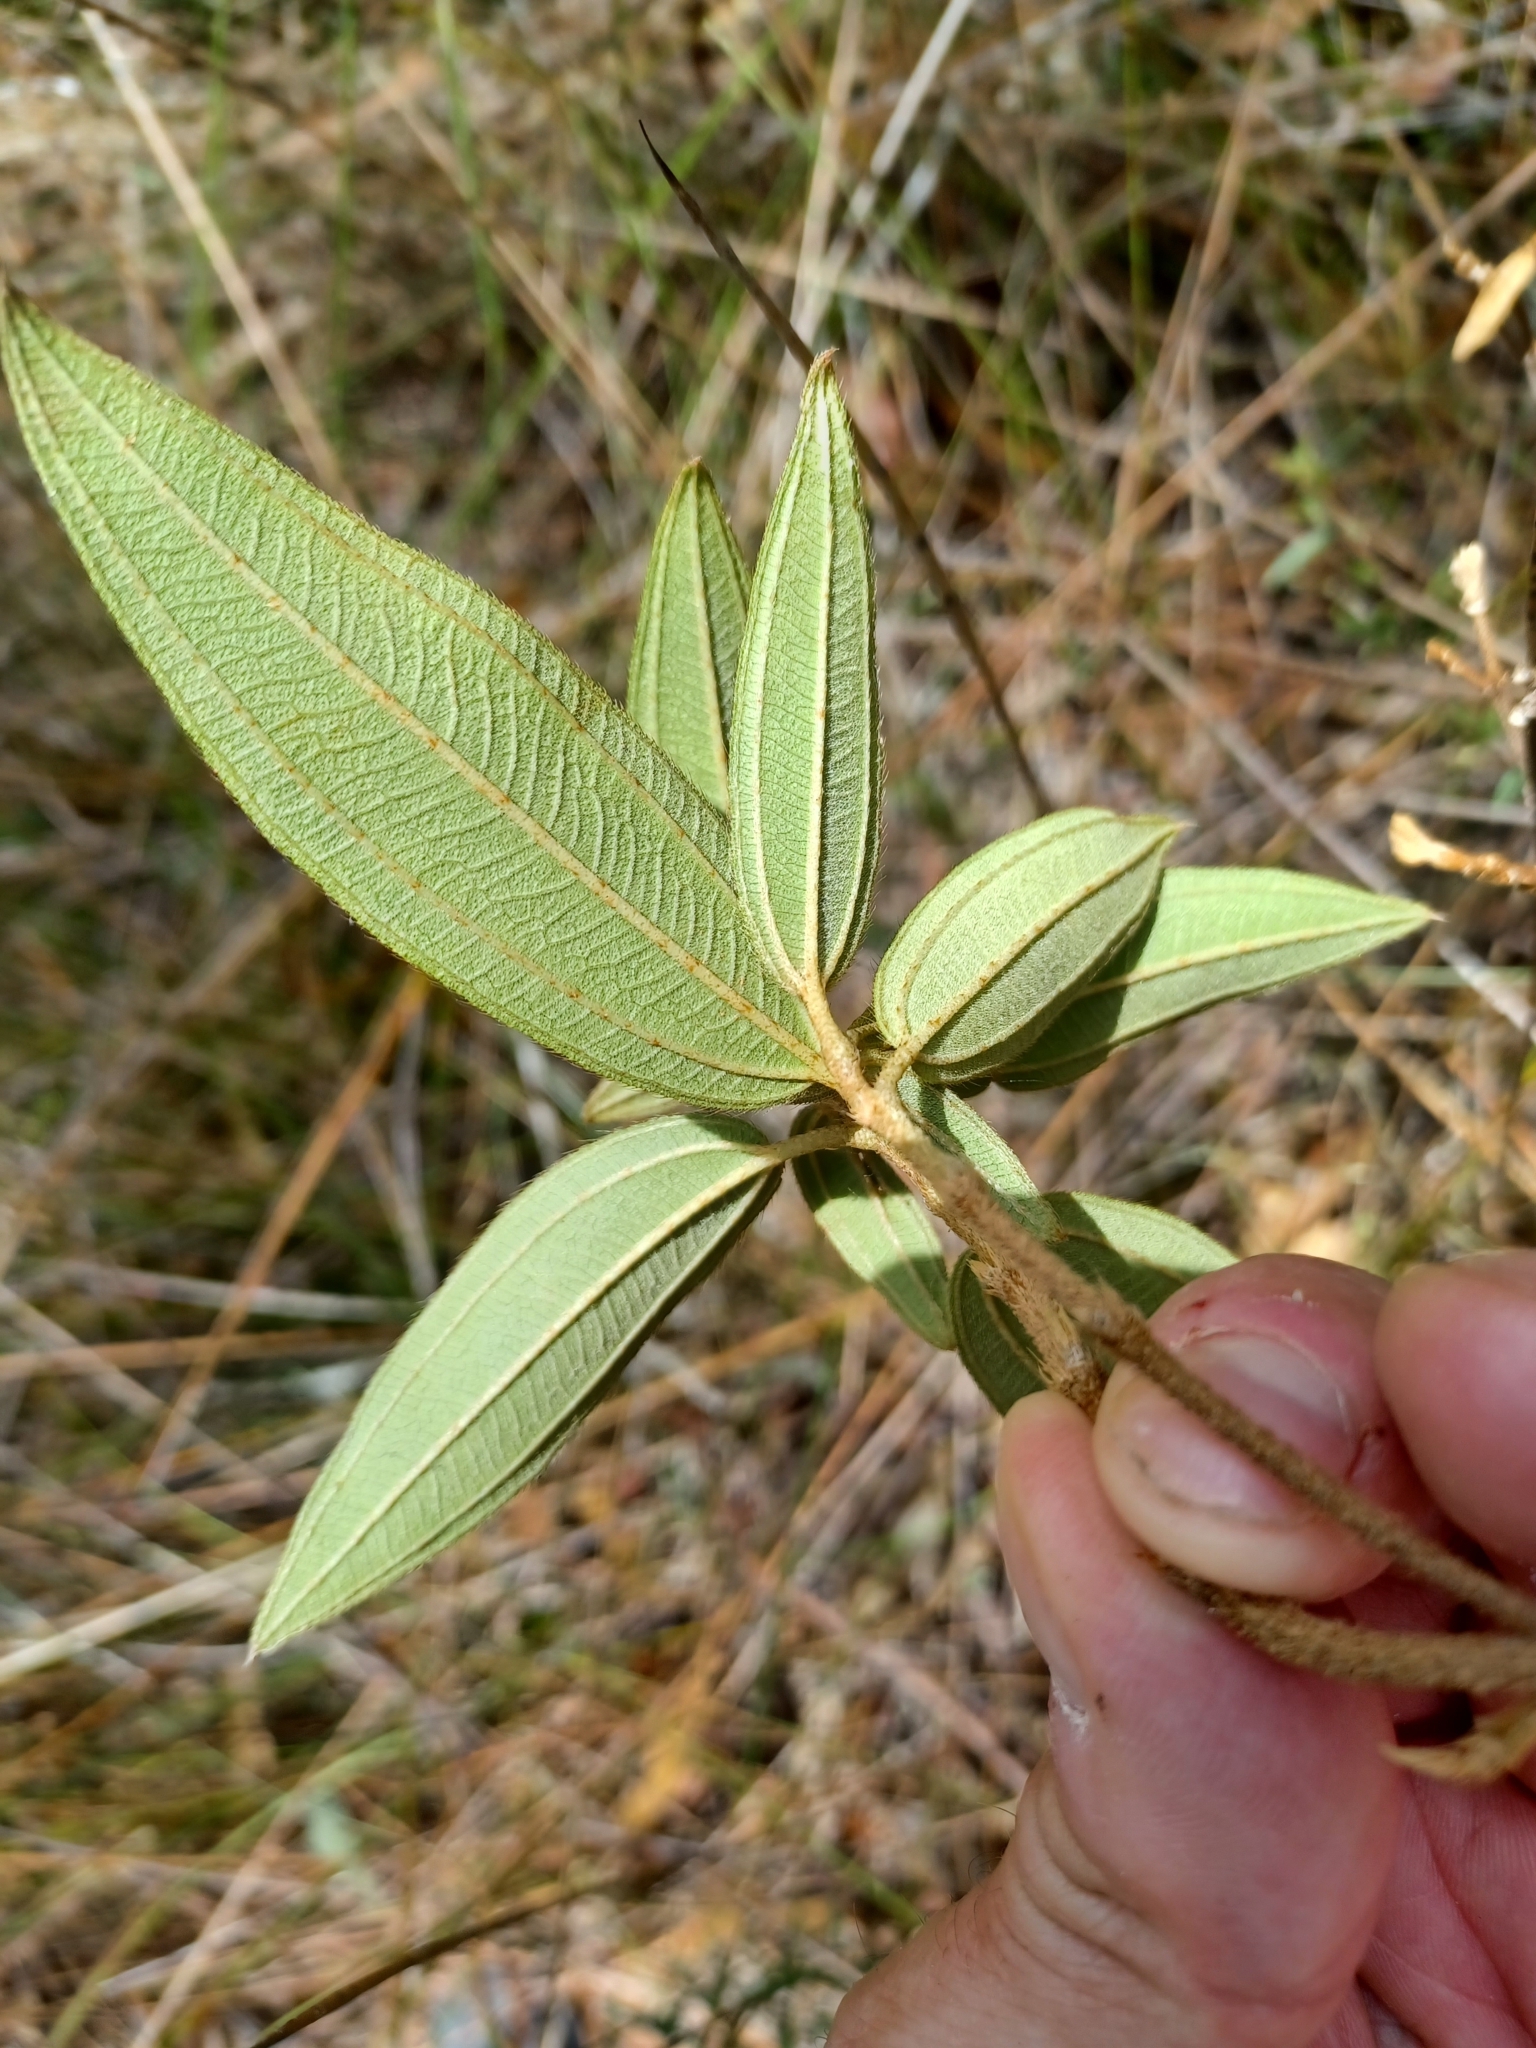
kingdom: Plantae
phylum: Tracheophyta
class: Magnoliopsida
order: Myrtales
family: Melastomataceae
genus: Melastoma
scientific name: Melastoma malabathricum
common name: Indian-rhododendron
